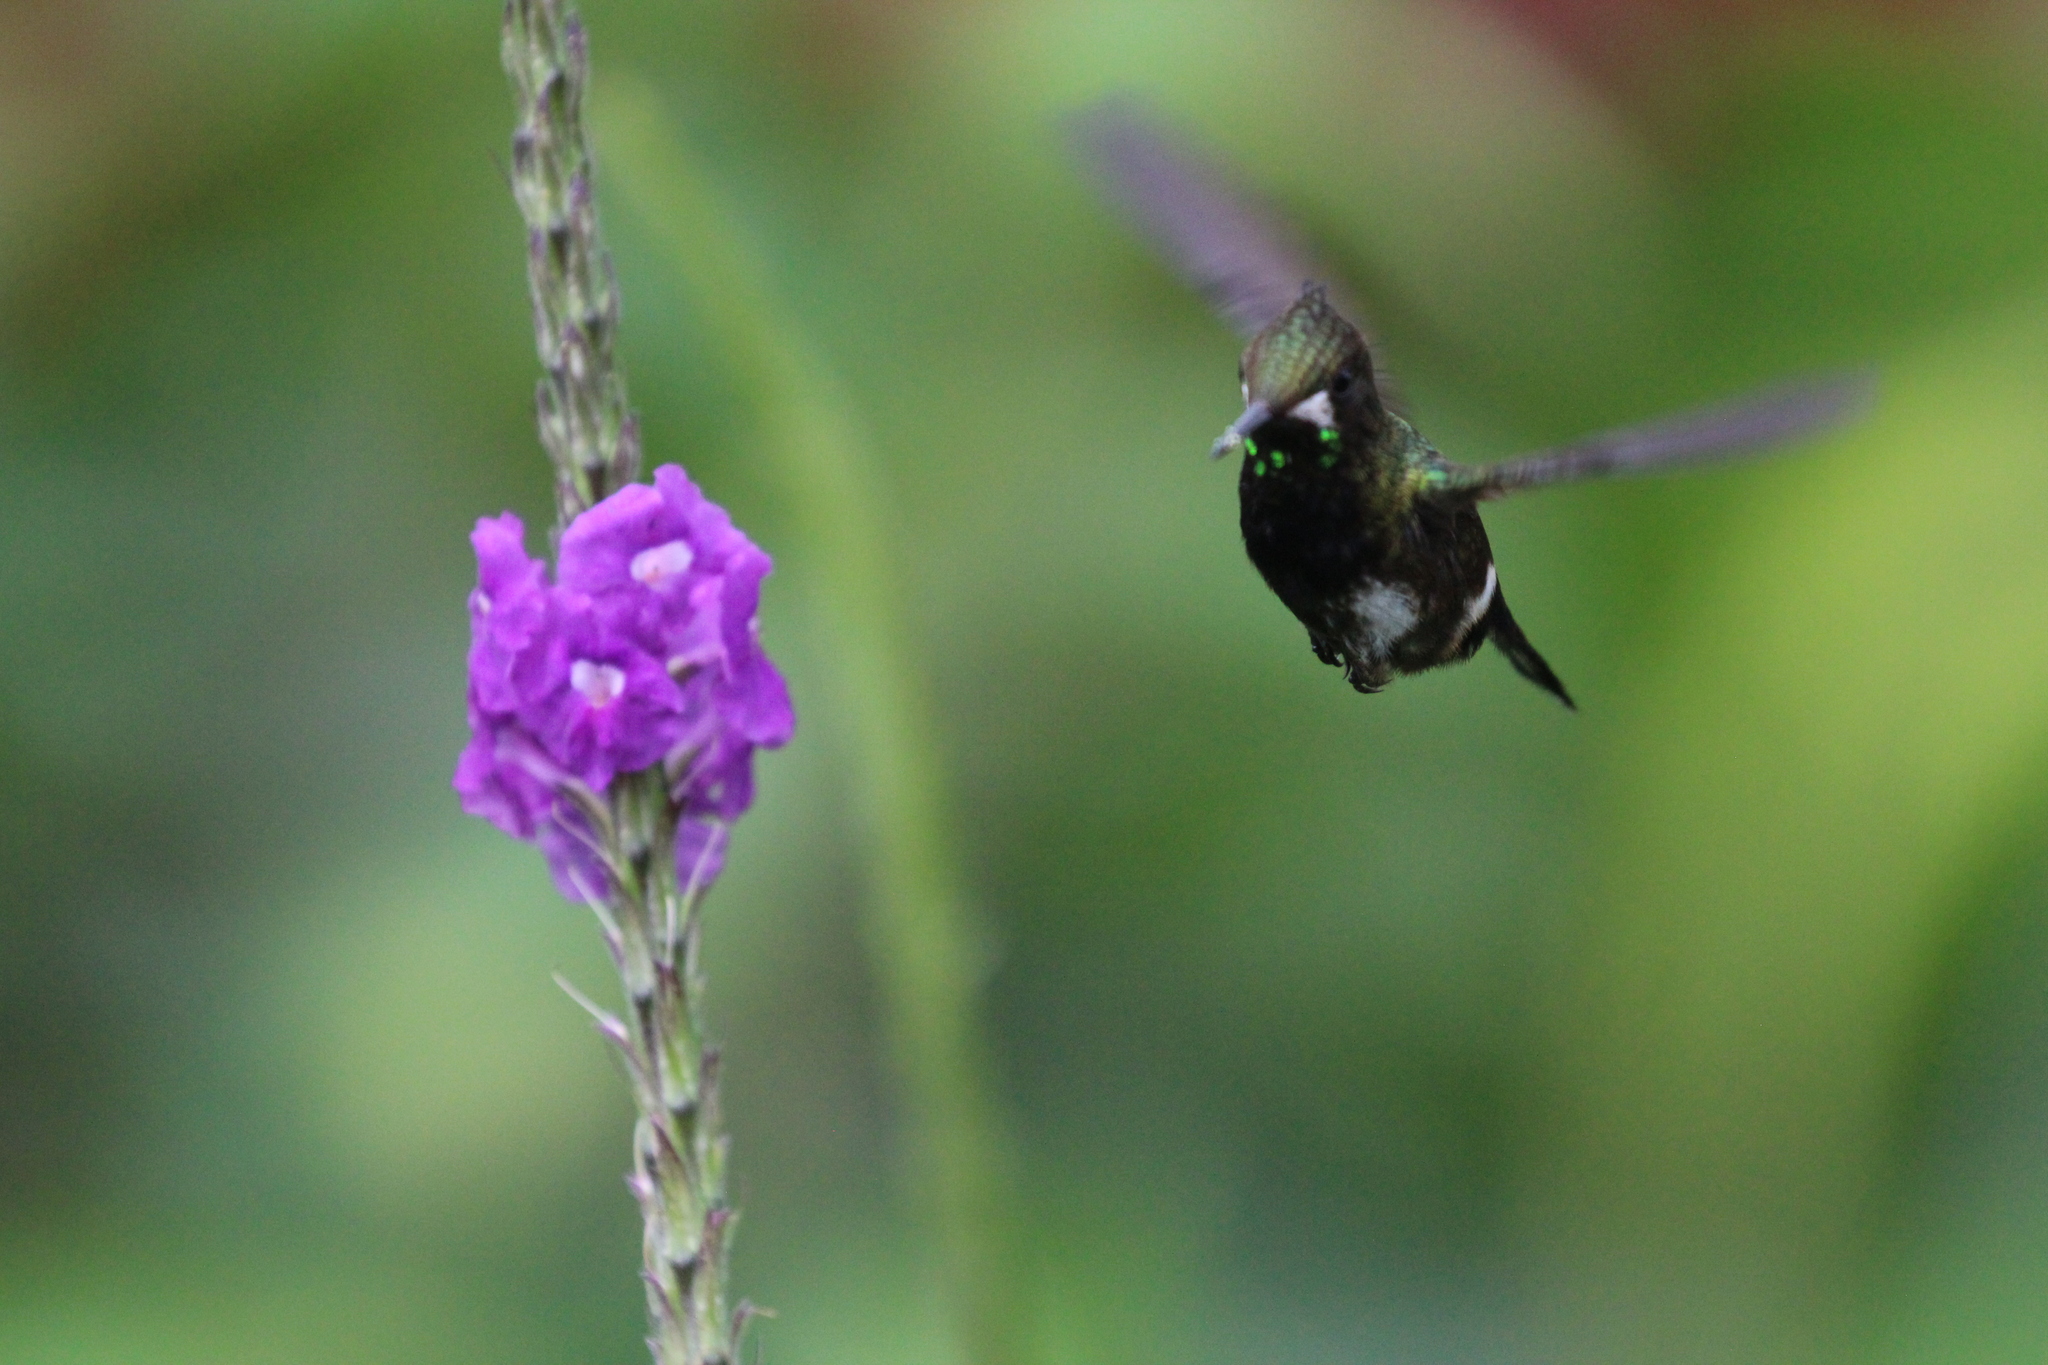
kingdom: Animalia
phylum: Chordata
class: Aves
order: Apodiformes
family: Trochilidae
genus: Discosura
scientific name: Discosura popelairii
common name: Wire-crested thorntail
